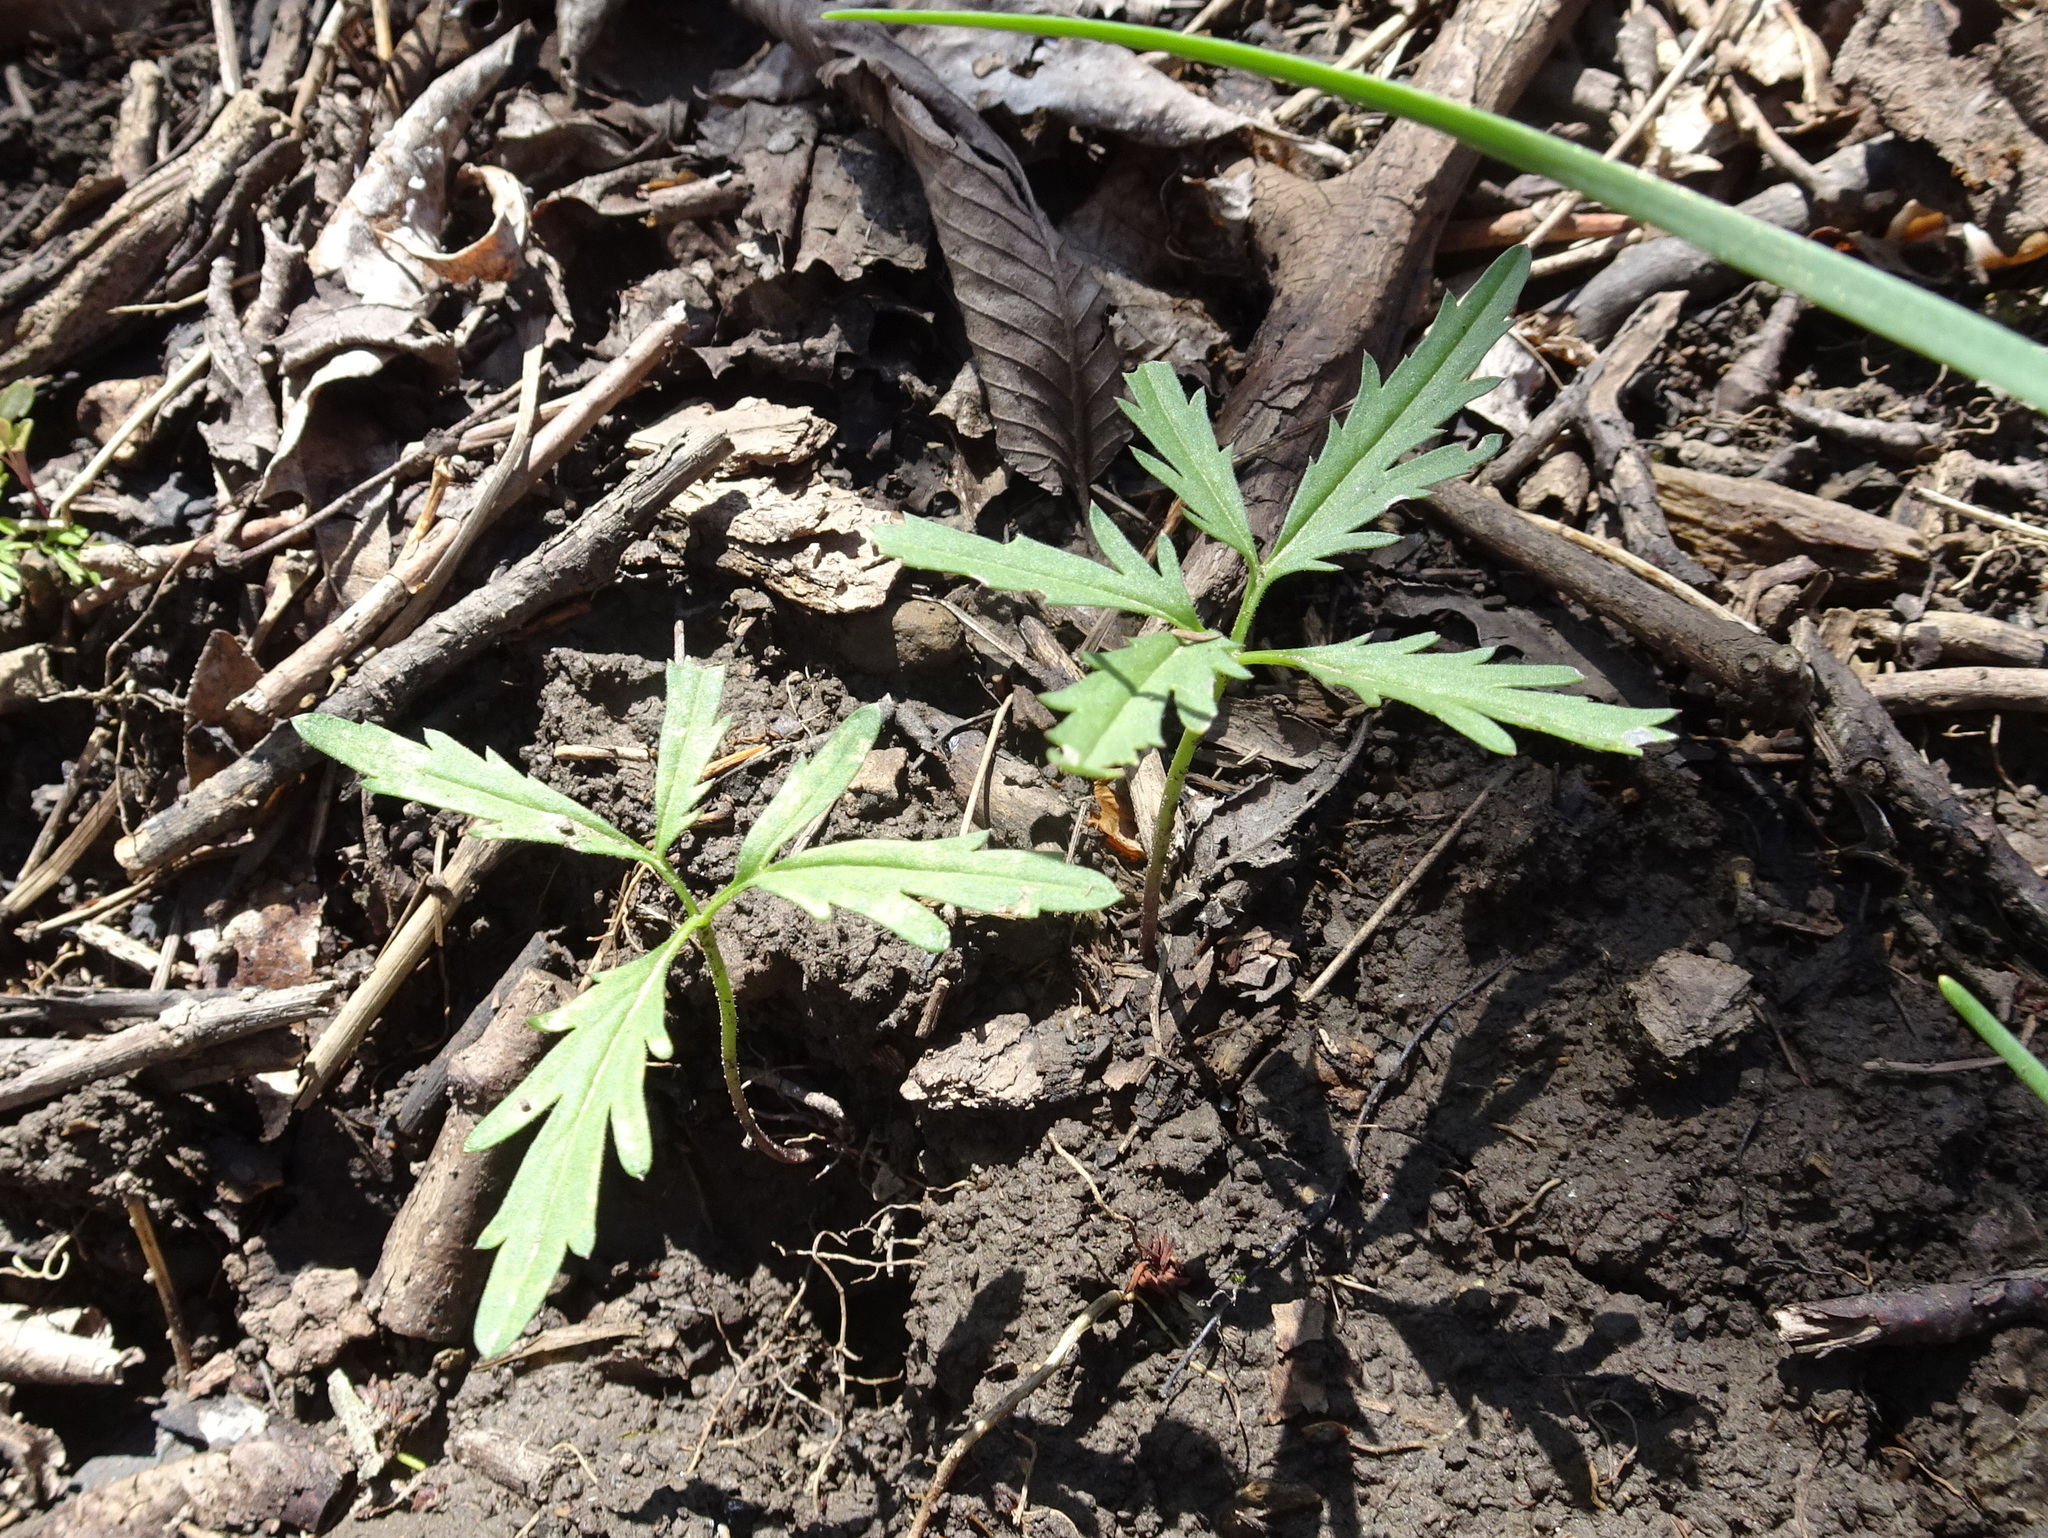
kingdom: Plantae
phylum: Tracheophyta
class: Magnoliopsida
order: Brassicales
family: Brassicaceae
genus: Cardamine
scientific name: Cardamine concatenata
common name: Cut-leaf toothcup
